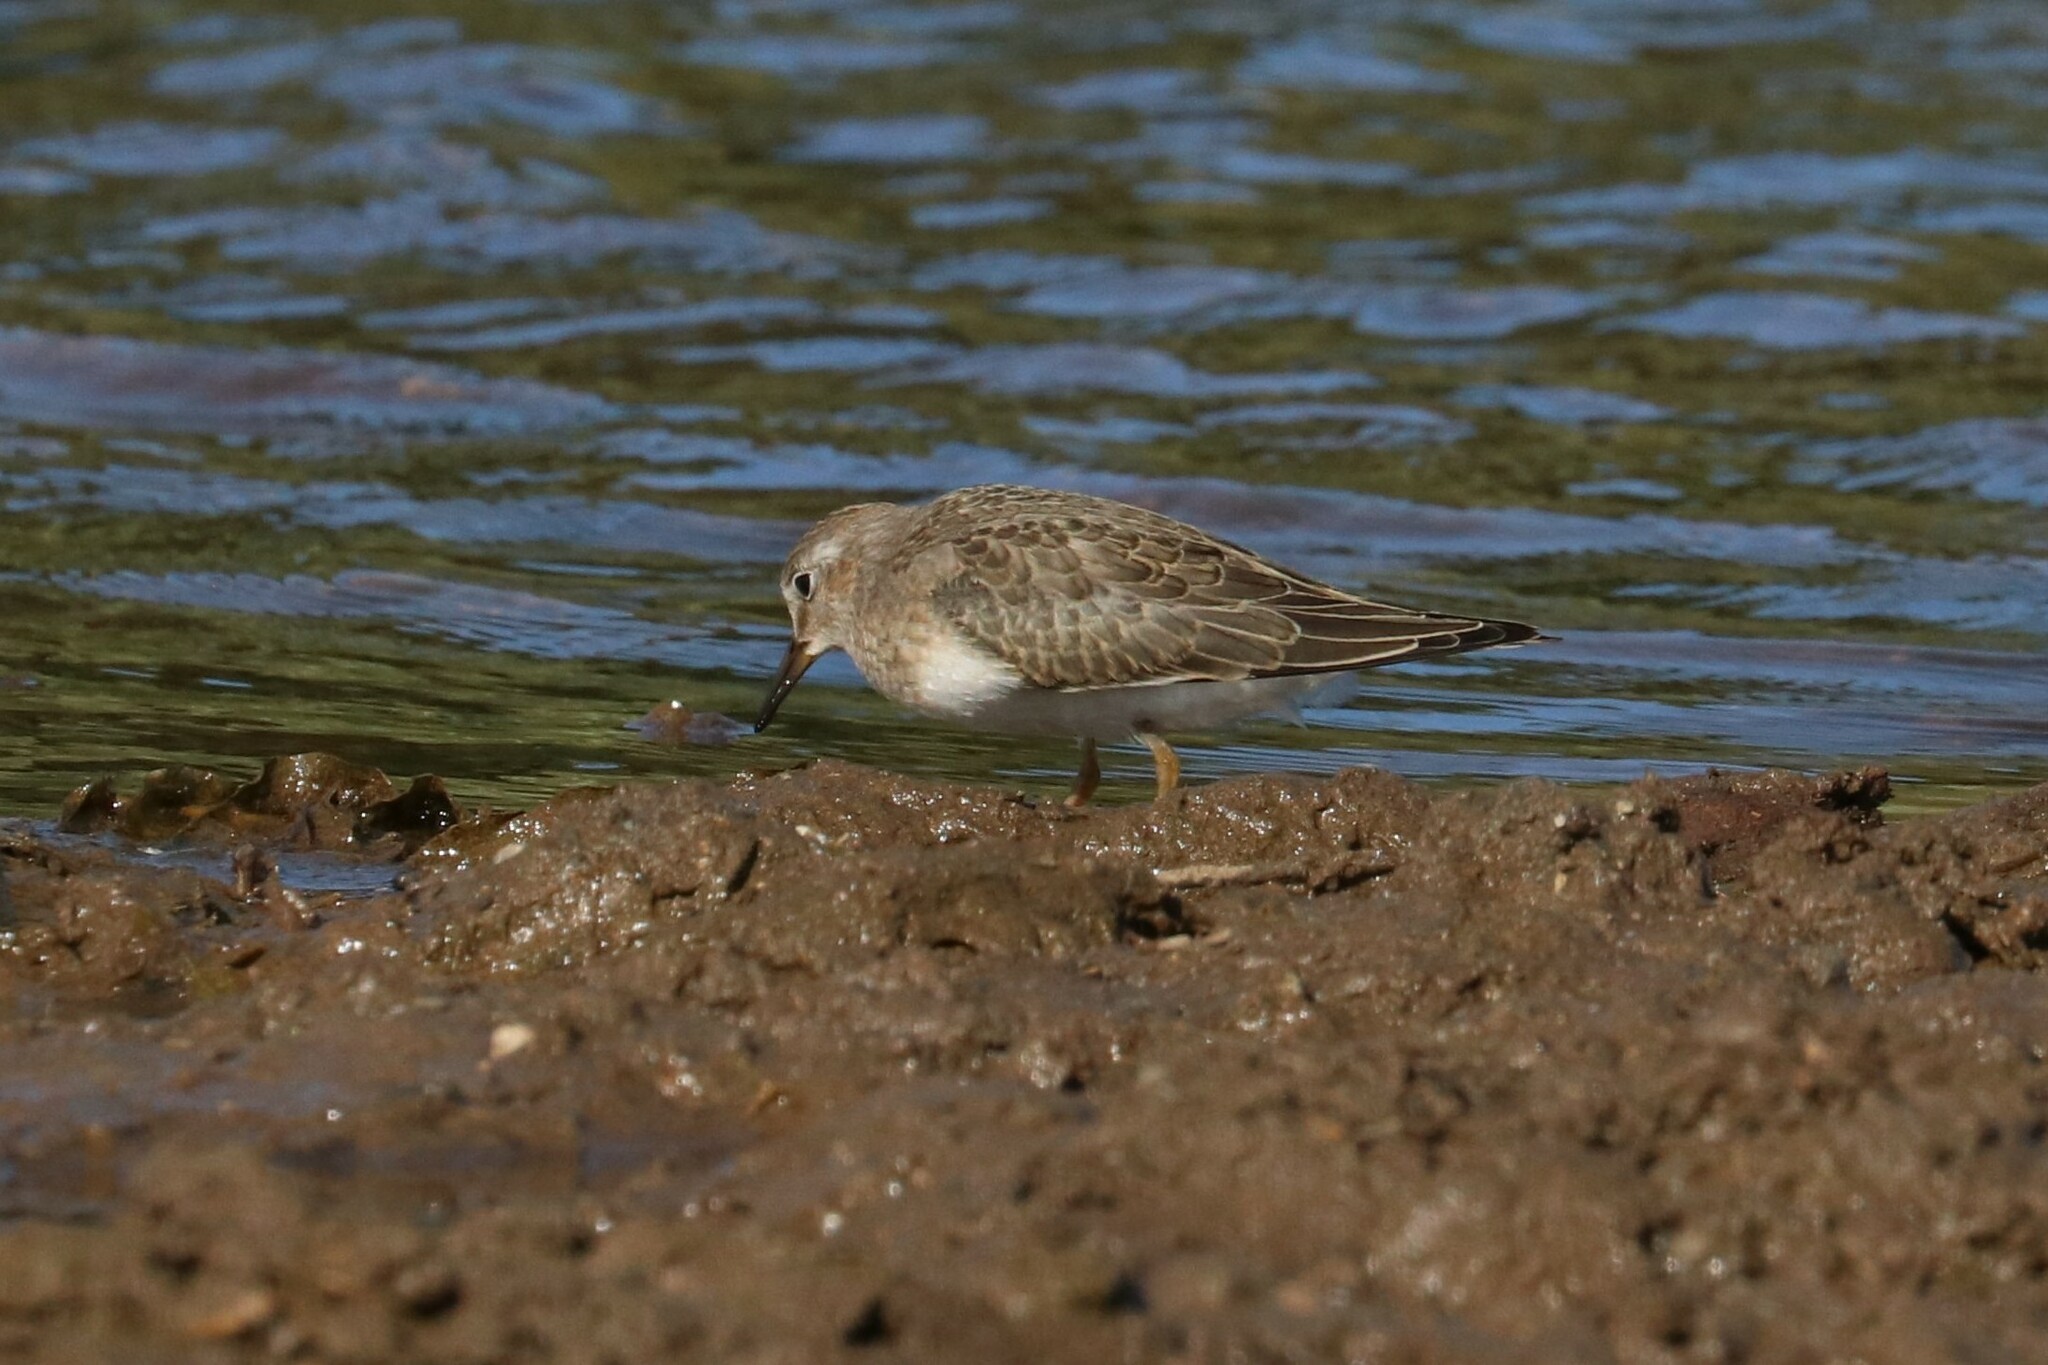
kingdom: Animalia
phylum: Chordata
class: Aves
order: Charadriiformes
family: Scolopacidae
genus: Calidris
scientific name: Calidris temminckii
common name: Temminck's stint
